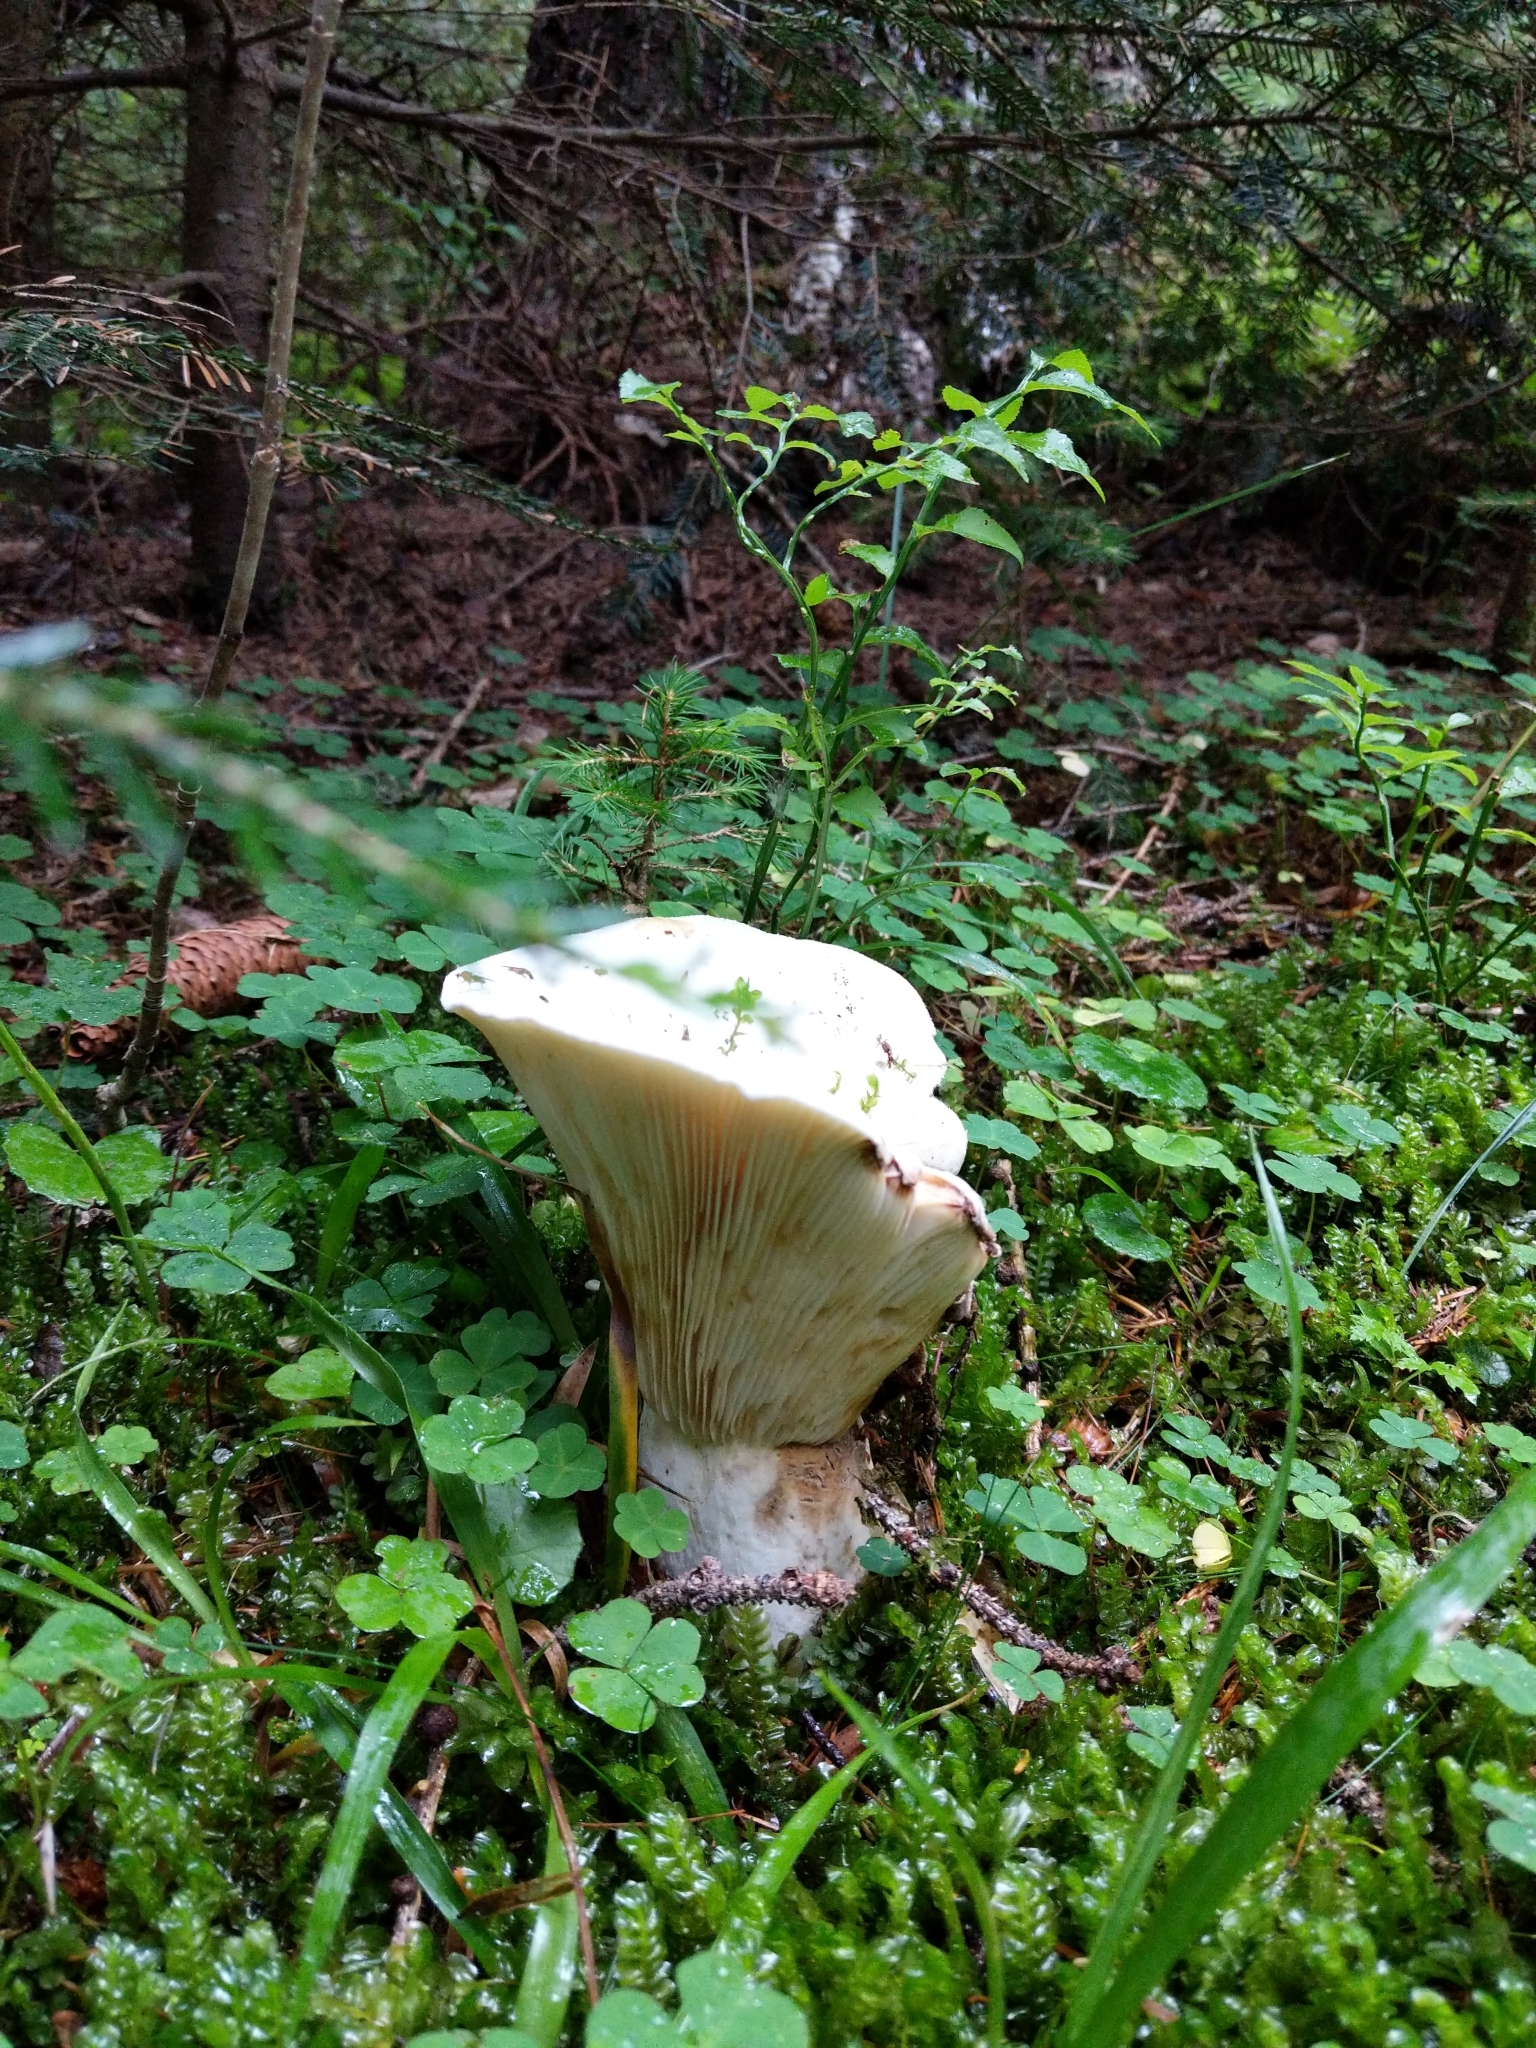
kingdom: Fungi
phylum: Basidiomycota
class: Agaricomycetes
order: Russulales
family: Russulaceae
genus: Lactifluus
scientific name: Lactifluus vellereus
